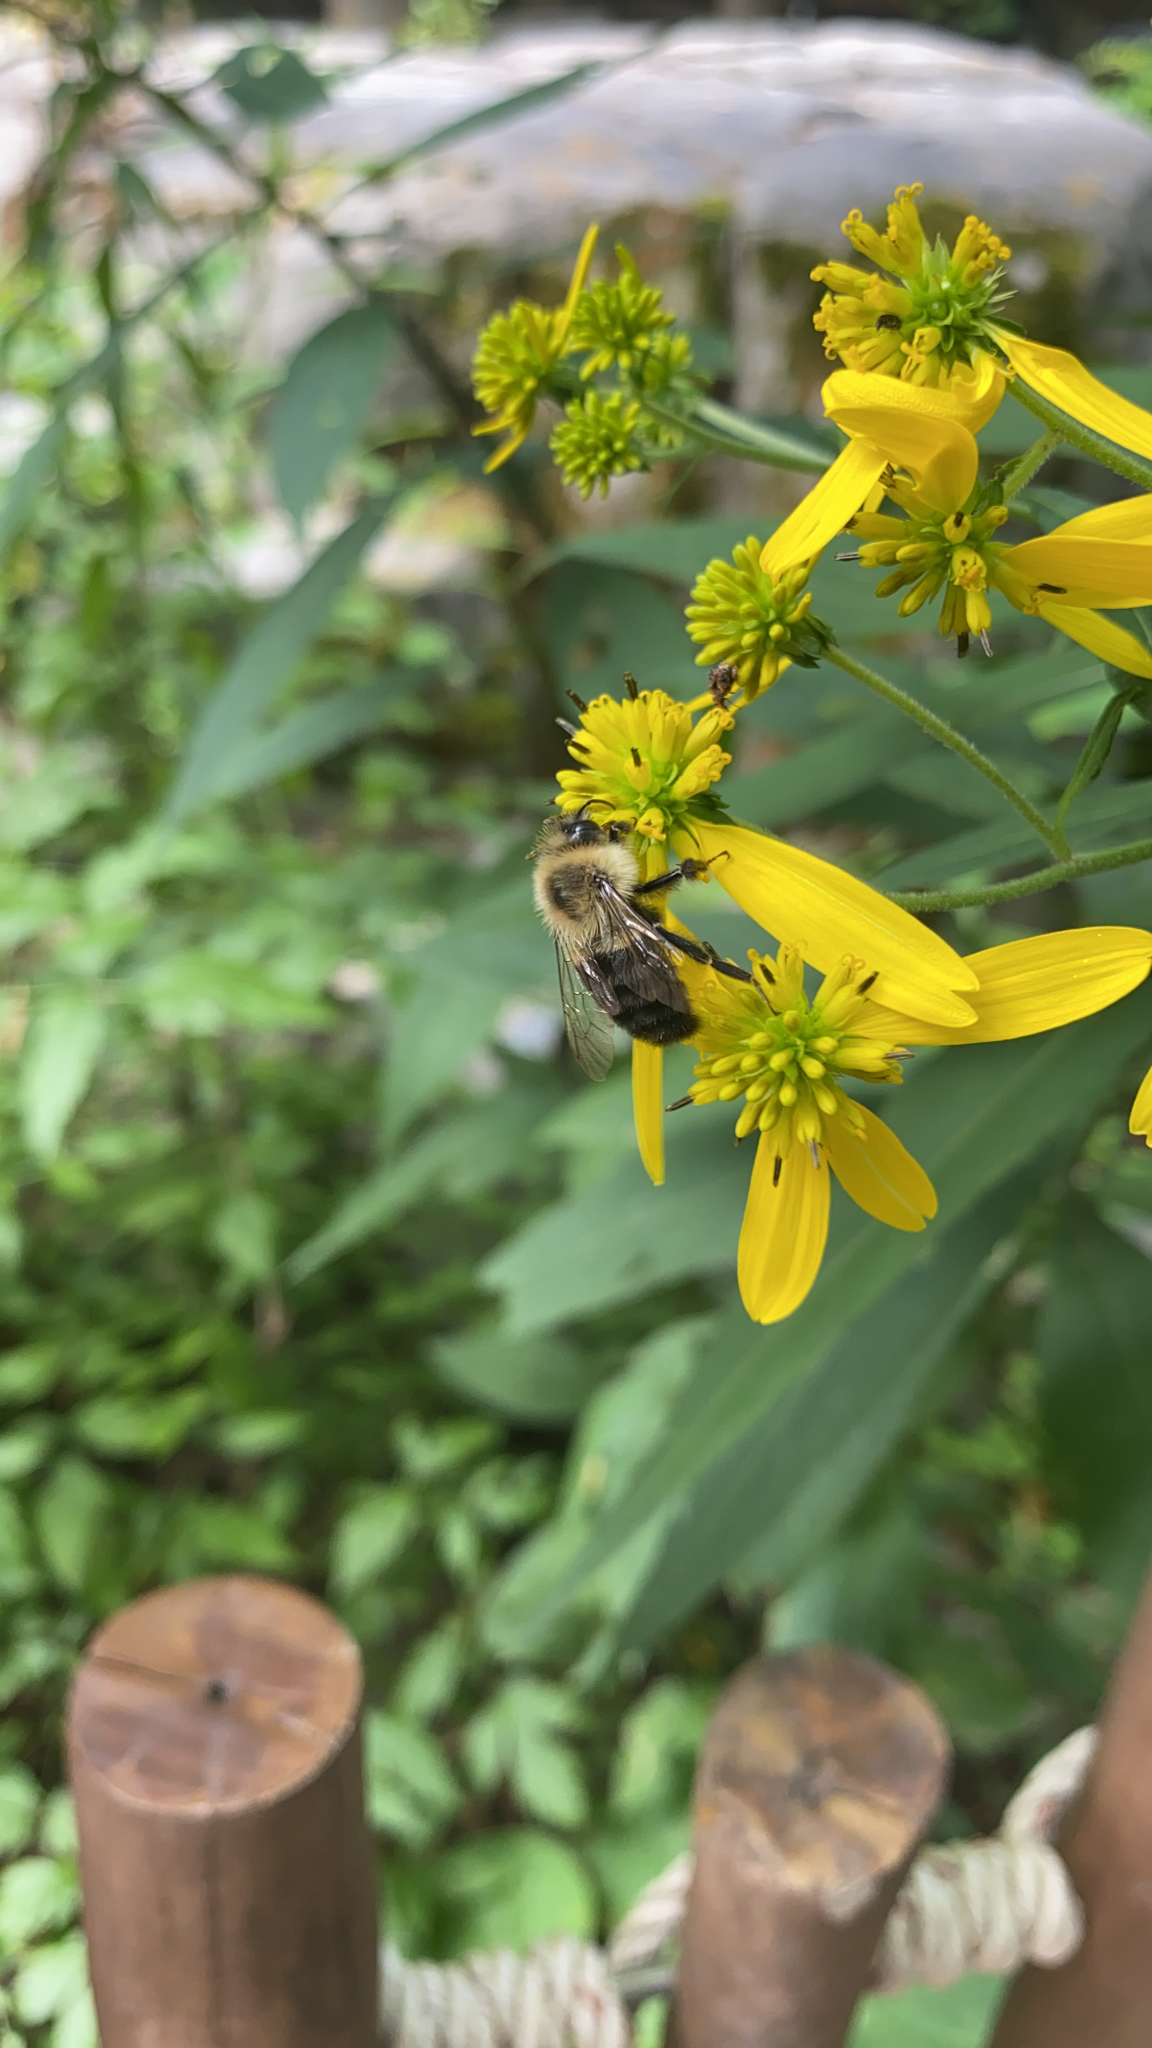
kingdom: Animalia
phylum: Arthropoda
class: Insecta
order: Hymenoptera
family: Apidae
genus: Bombus
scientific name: Bombus impatiens
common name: Common eastern bumble bee
